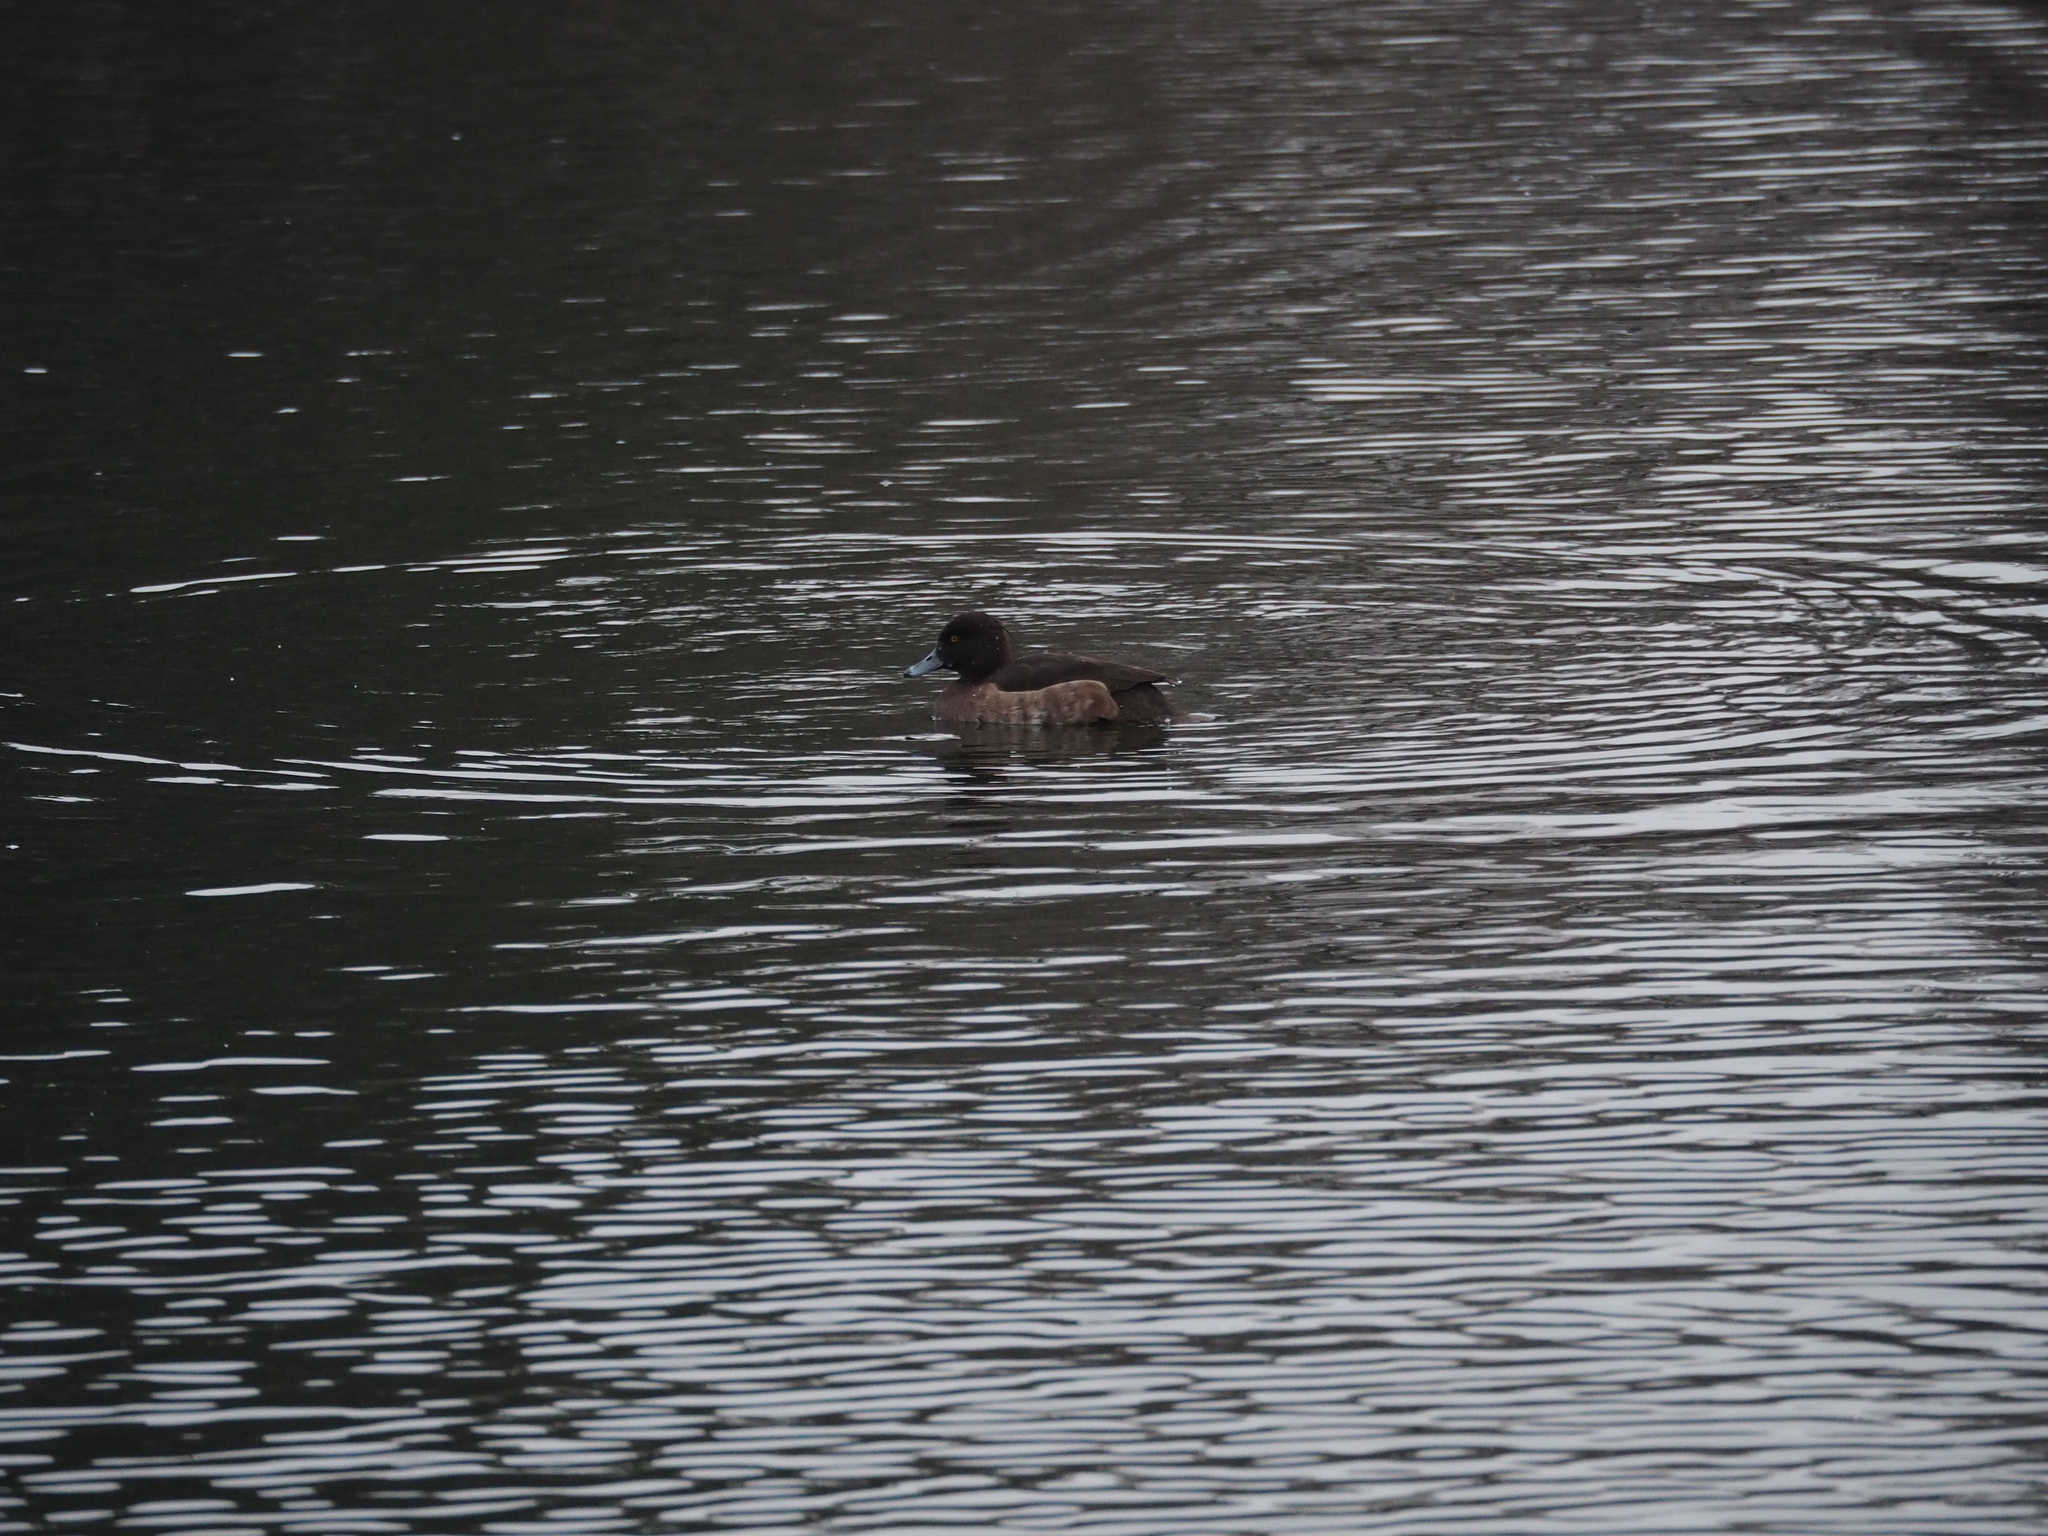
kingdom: Animalia
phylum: Chordata
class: Aves
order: Anseriformes
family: Anatidae
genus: Aythya
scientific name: Aythya fuligula
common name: Tufted duck
